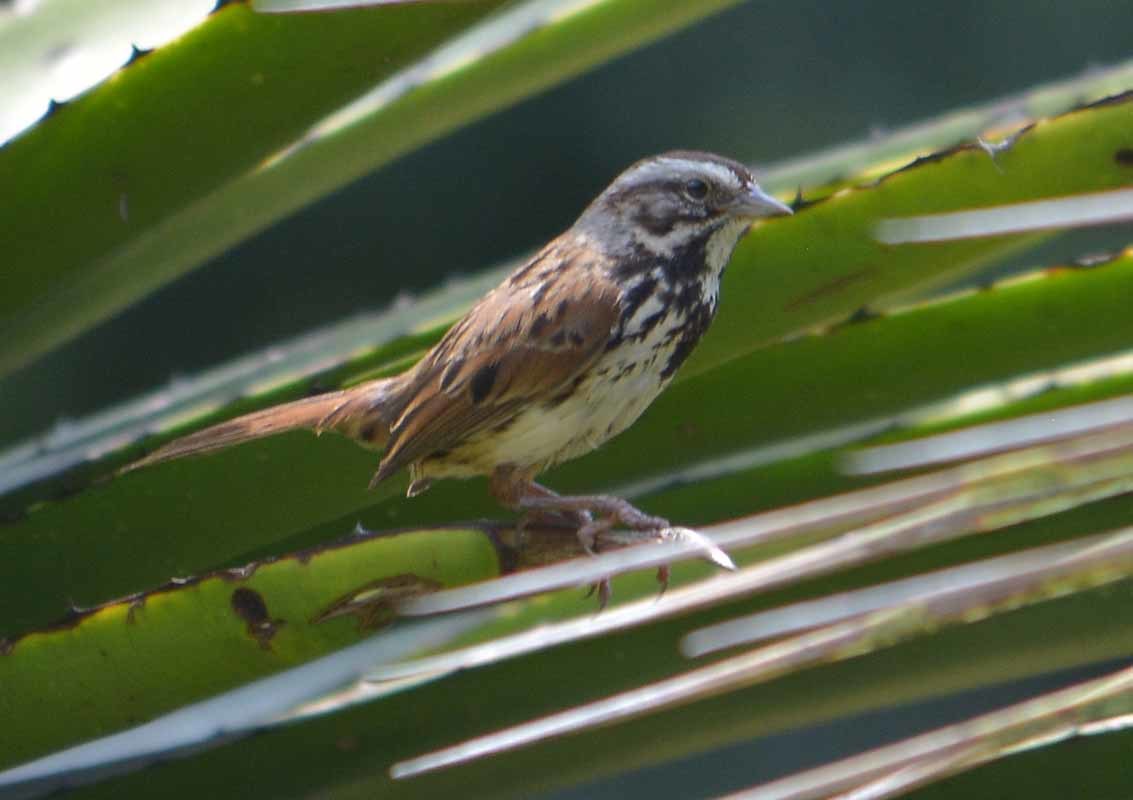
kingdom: Animalia
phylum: Chordata
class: Aves
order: Passeriformes
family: Passerellidae
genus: Melospiza
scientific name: Melospiza melodia
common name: Song sparrow
